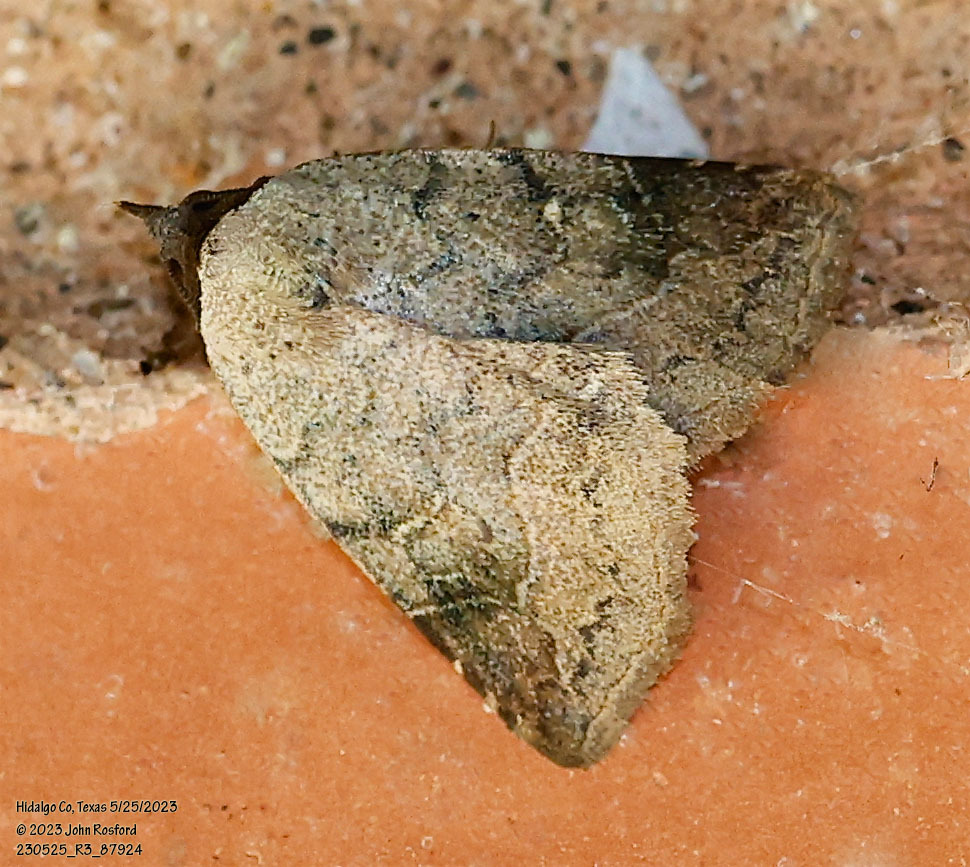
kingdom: Animalia
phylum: Arthropoda
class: Insecta
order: Lepidoptera
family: Erebidae
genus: Isogona
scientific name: Isogona texana
